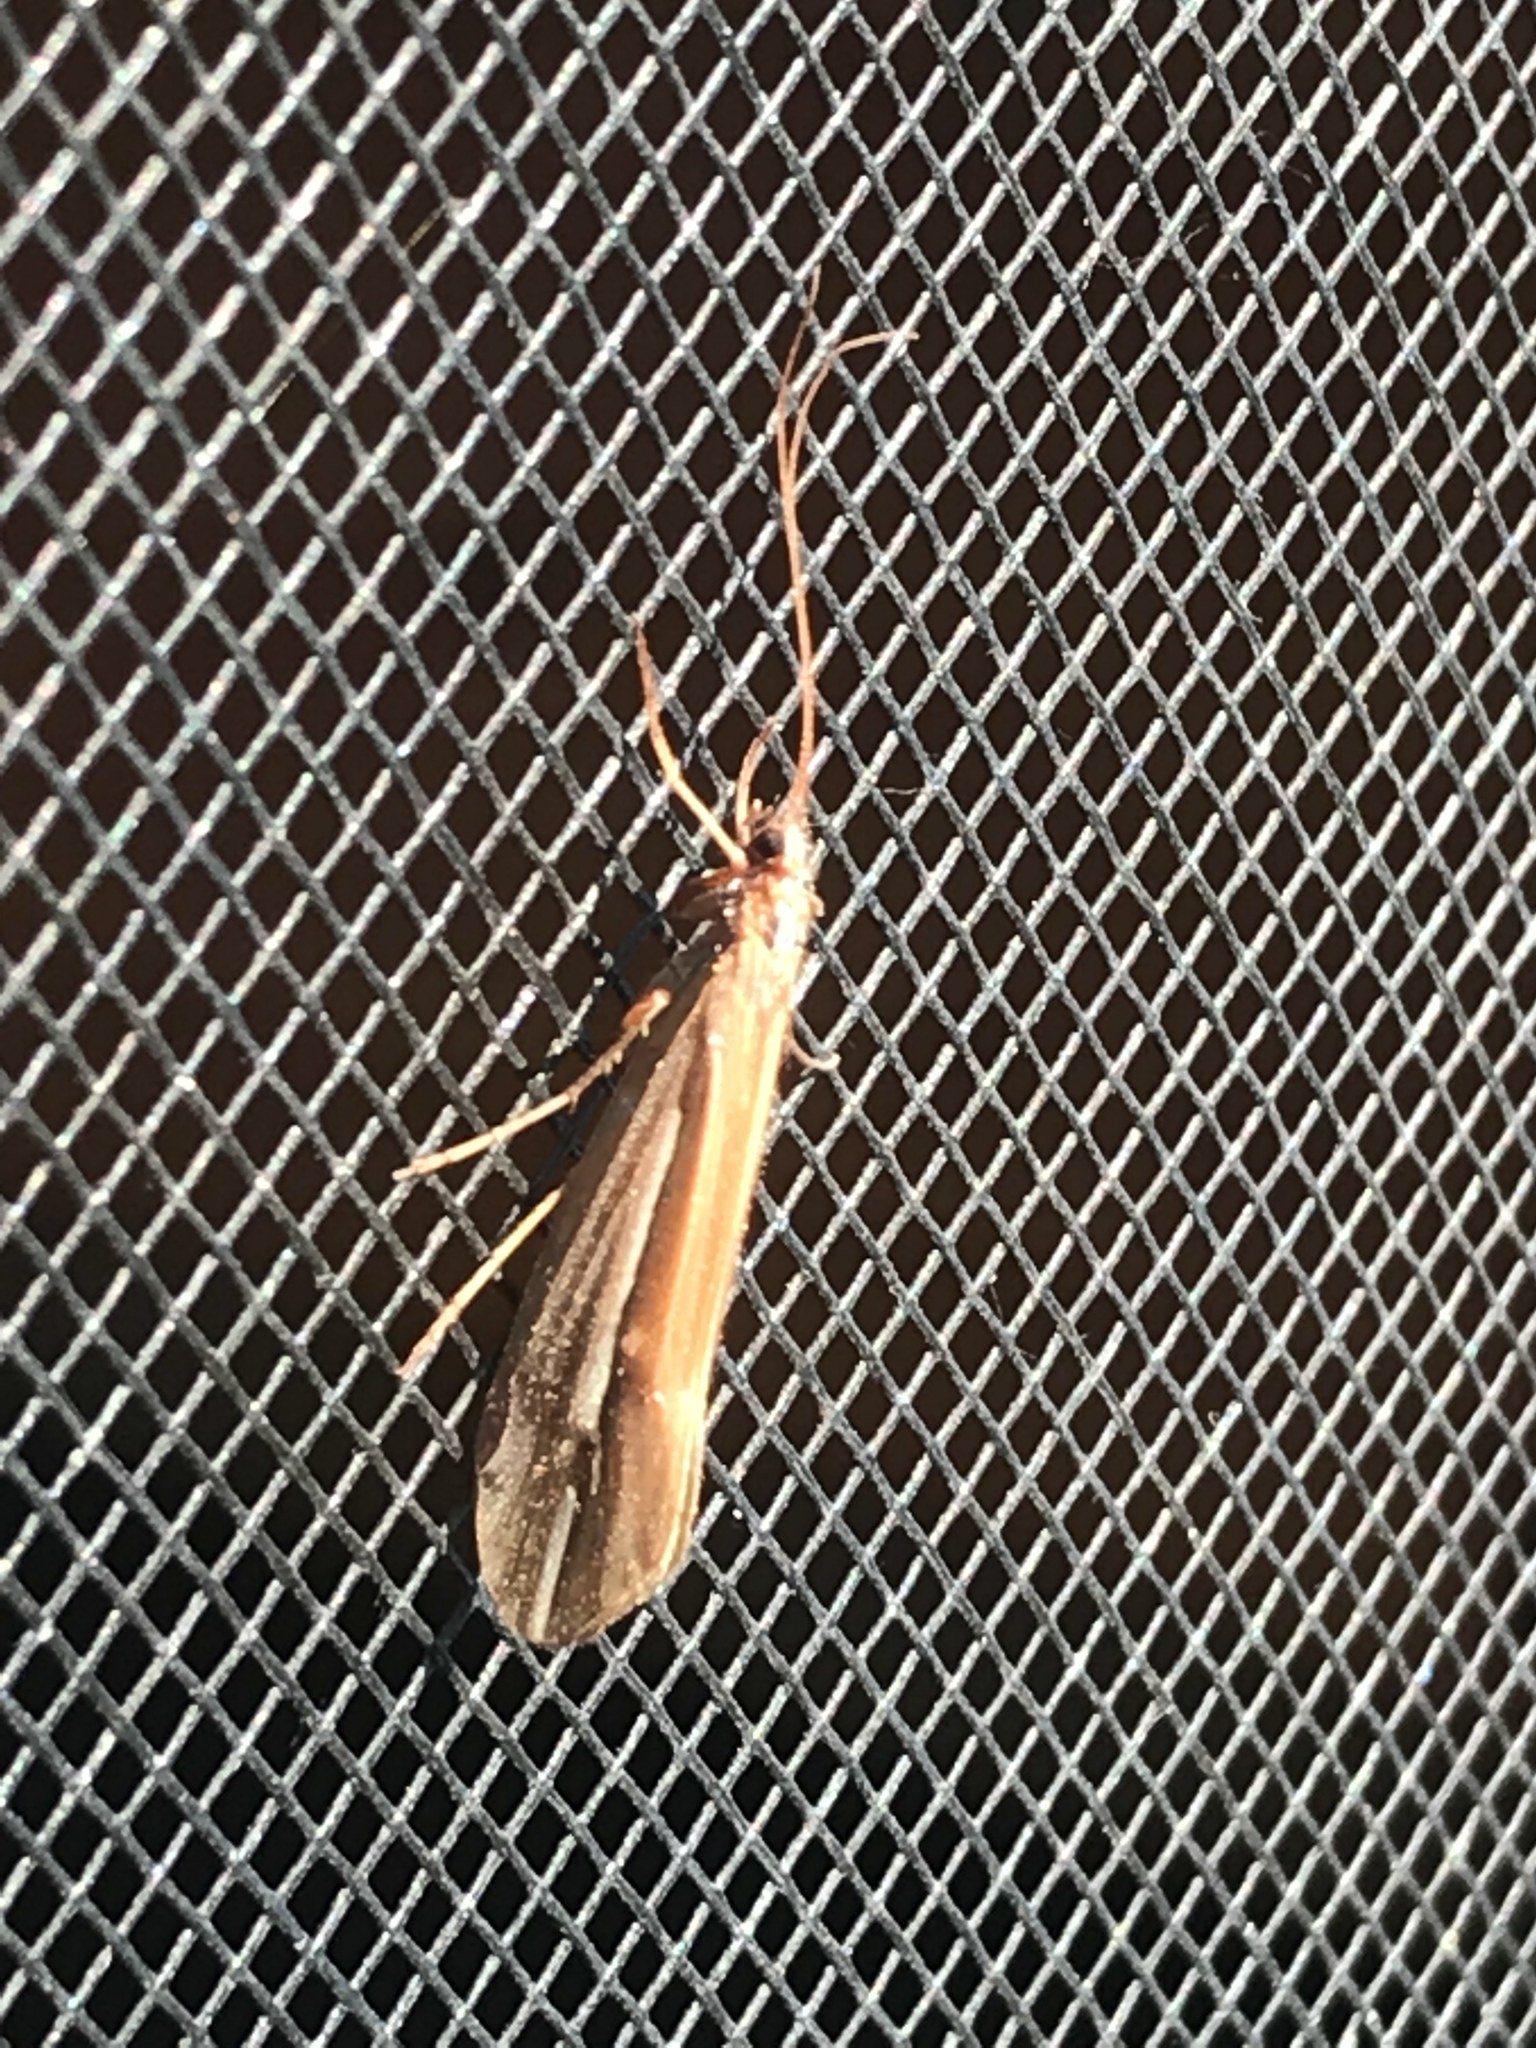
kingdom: Animalia
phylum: Arthropoda
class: Insecta
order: Trichoptera
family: Limnephilidae
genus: Psychoglypha
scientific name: Psychoglypha subborealis
